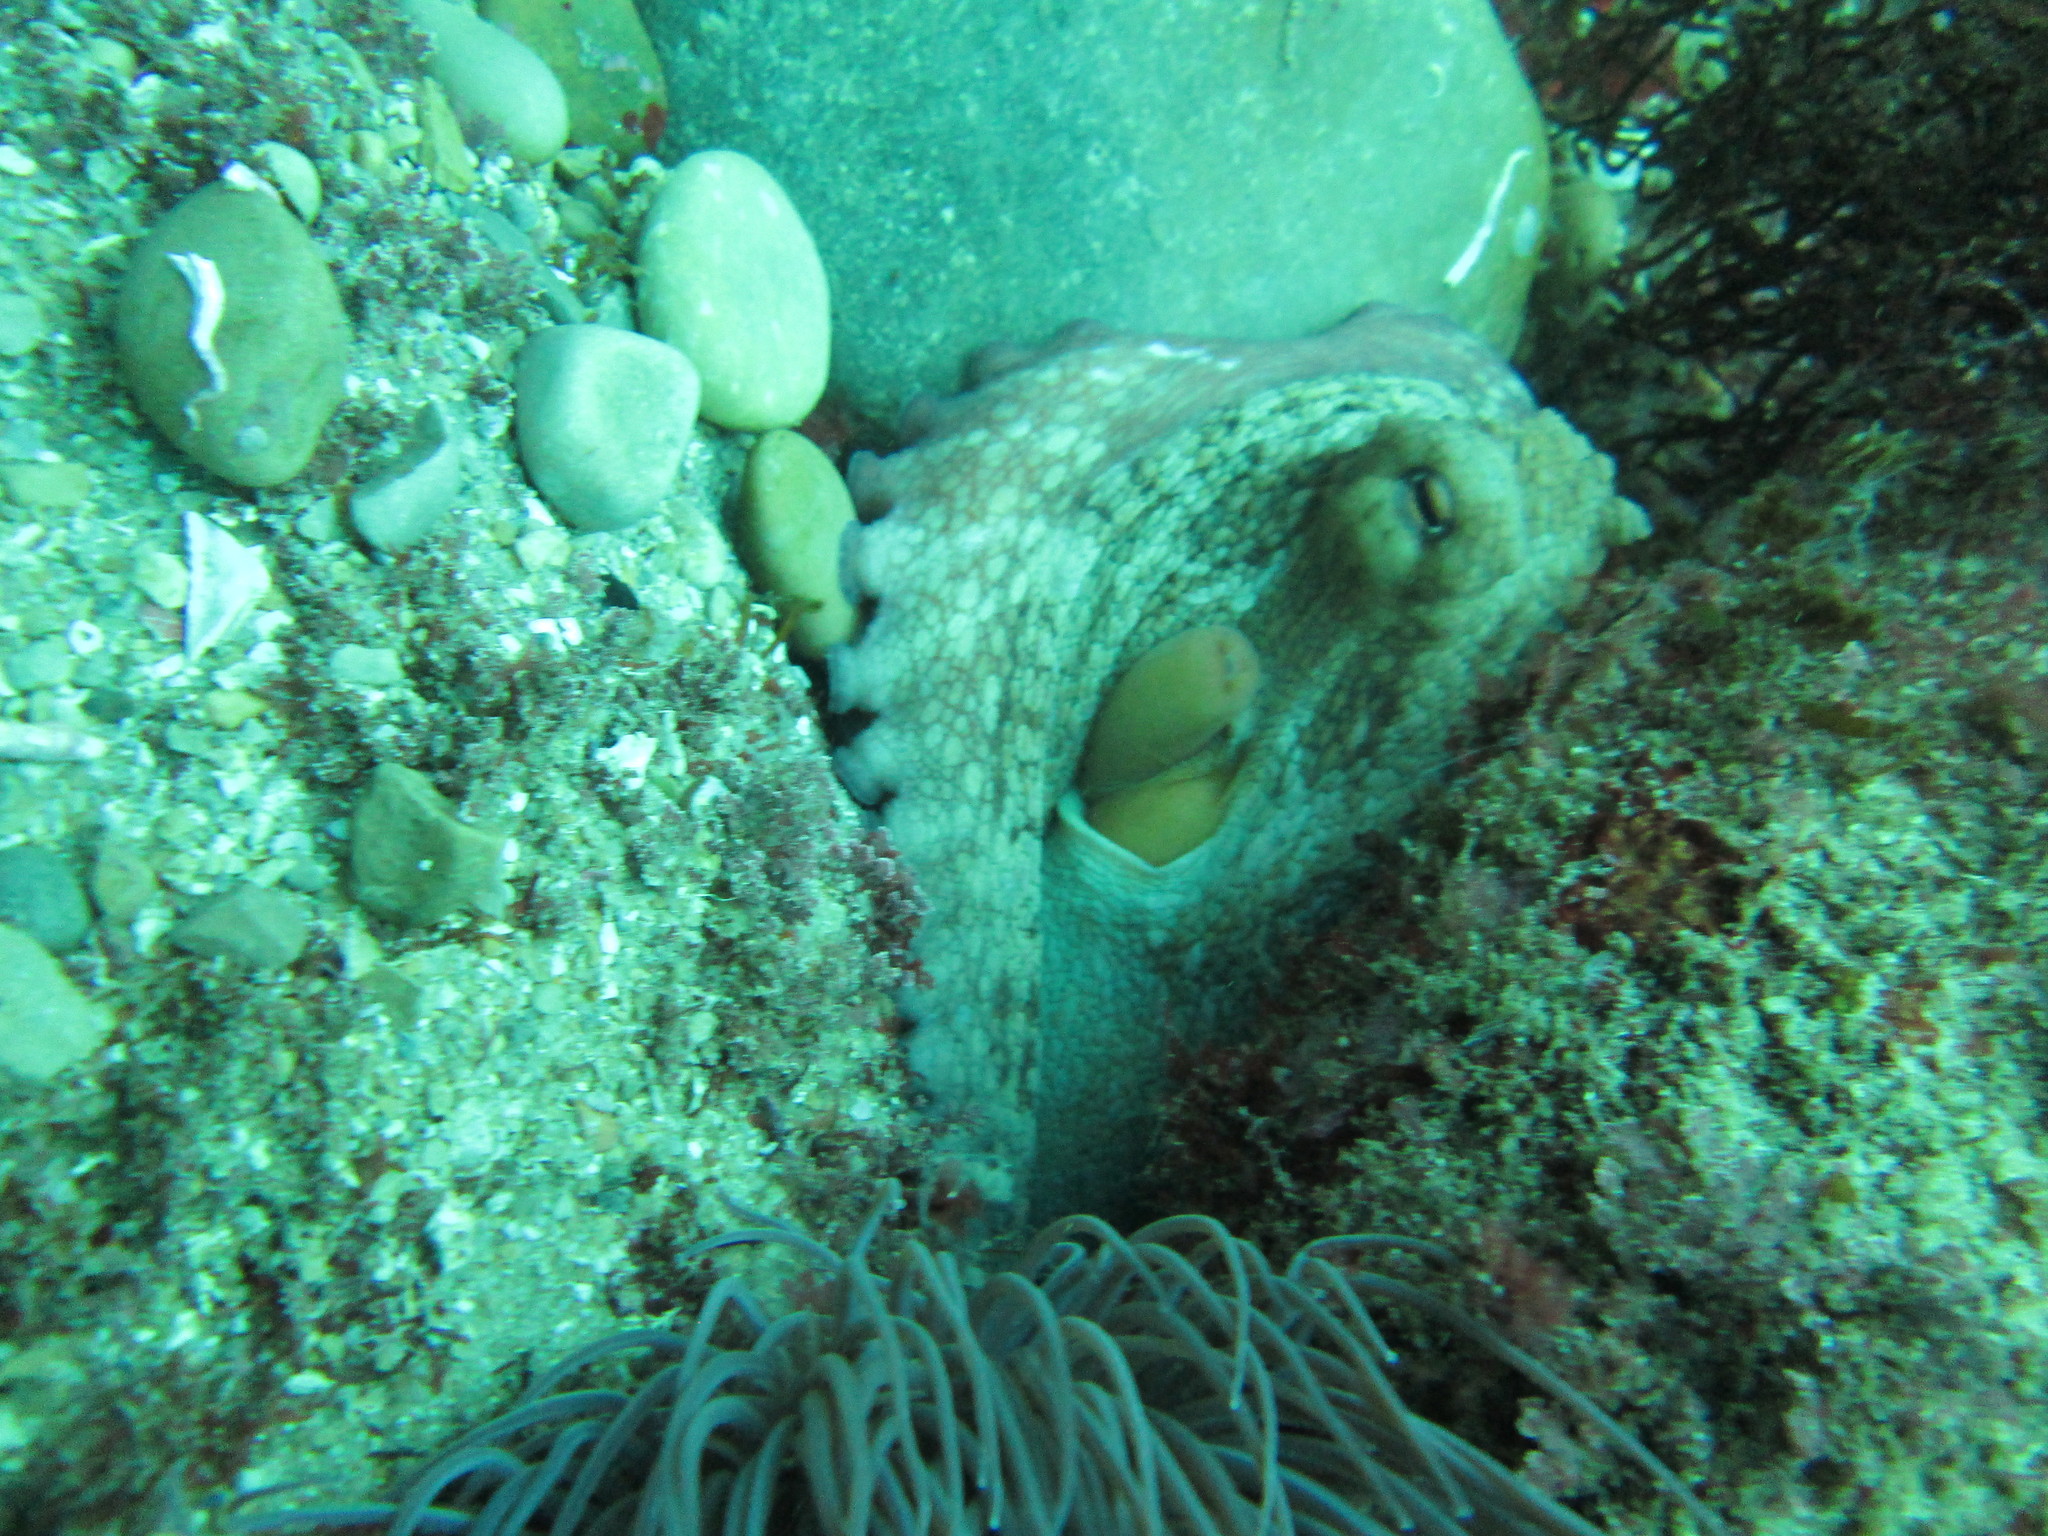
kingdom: Animalia
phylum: Mollusca
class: Cephalopoda
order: Octopoda
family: Octopodidae
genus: Octopus
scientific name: Octopus vulgaris
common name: Common octopus
